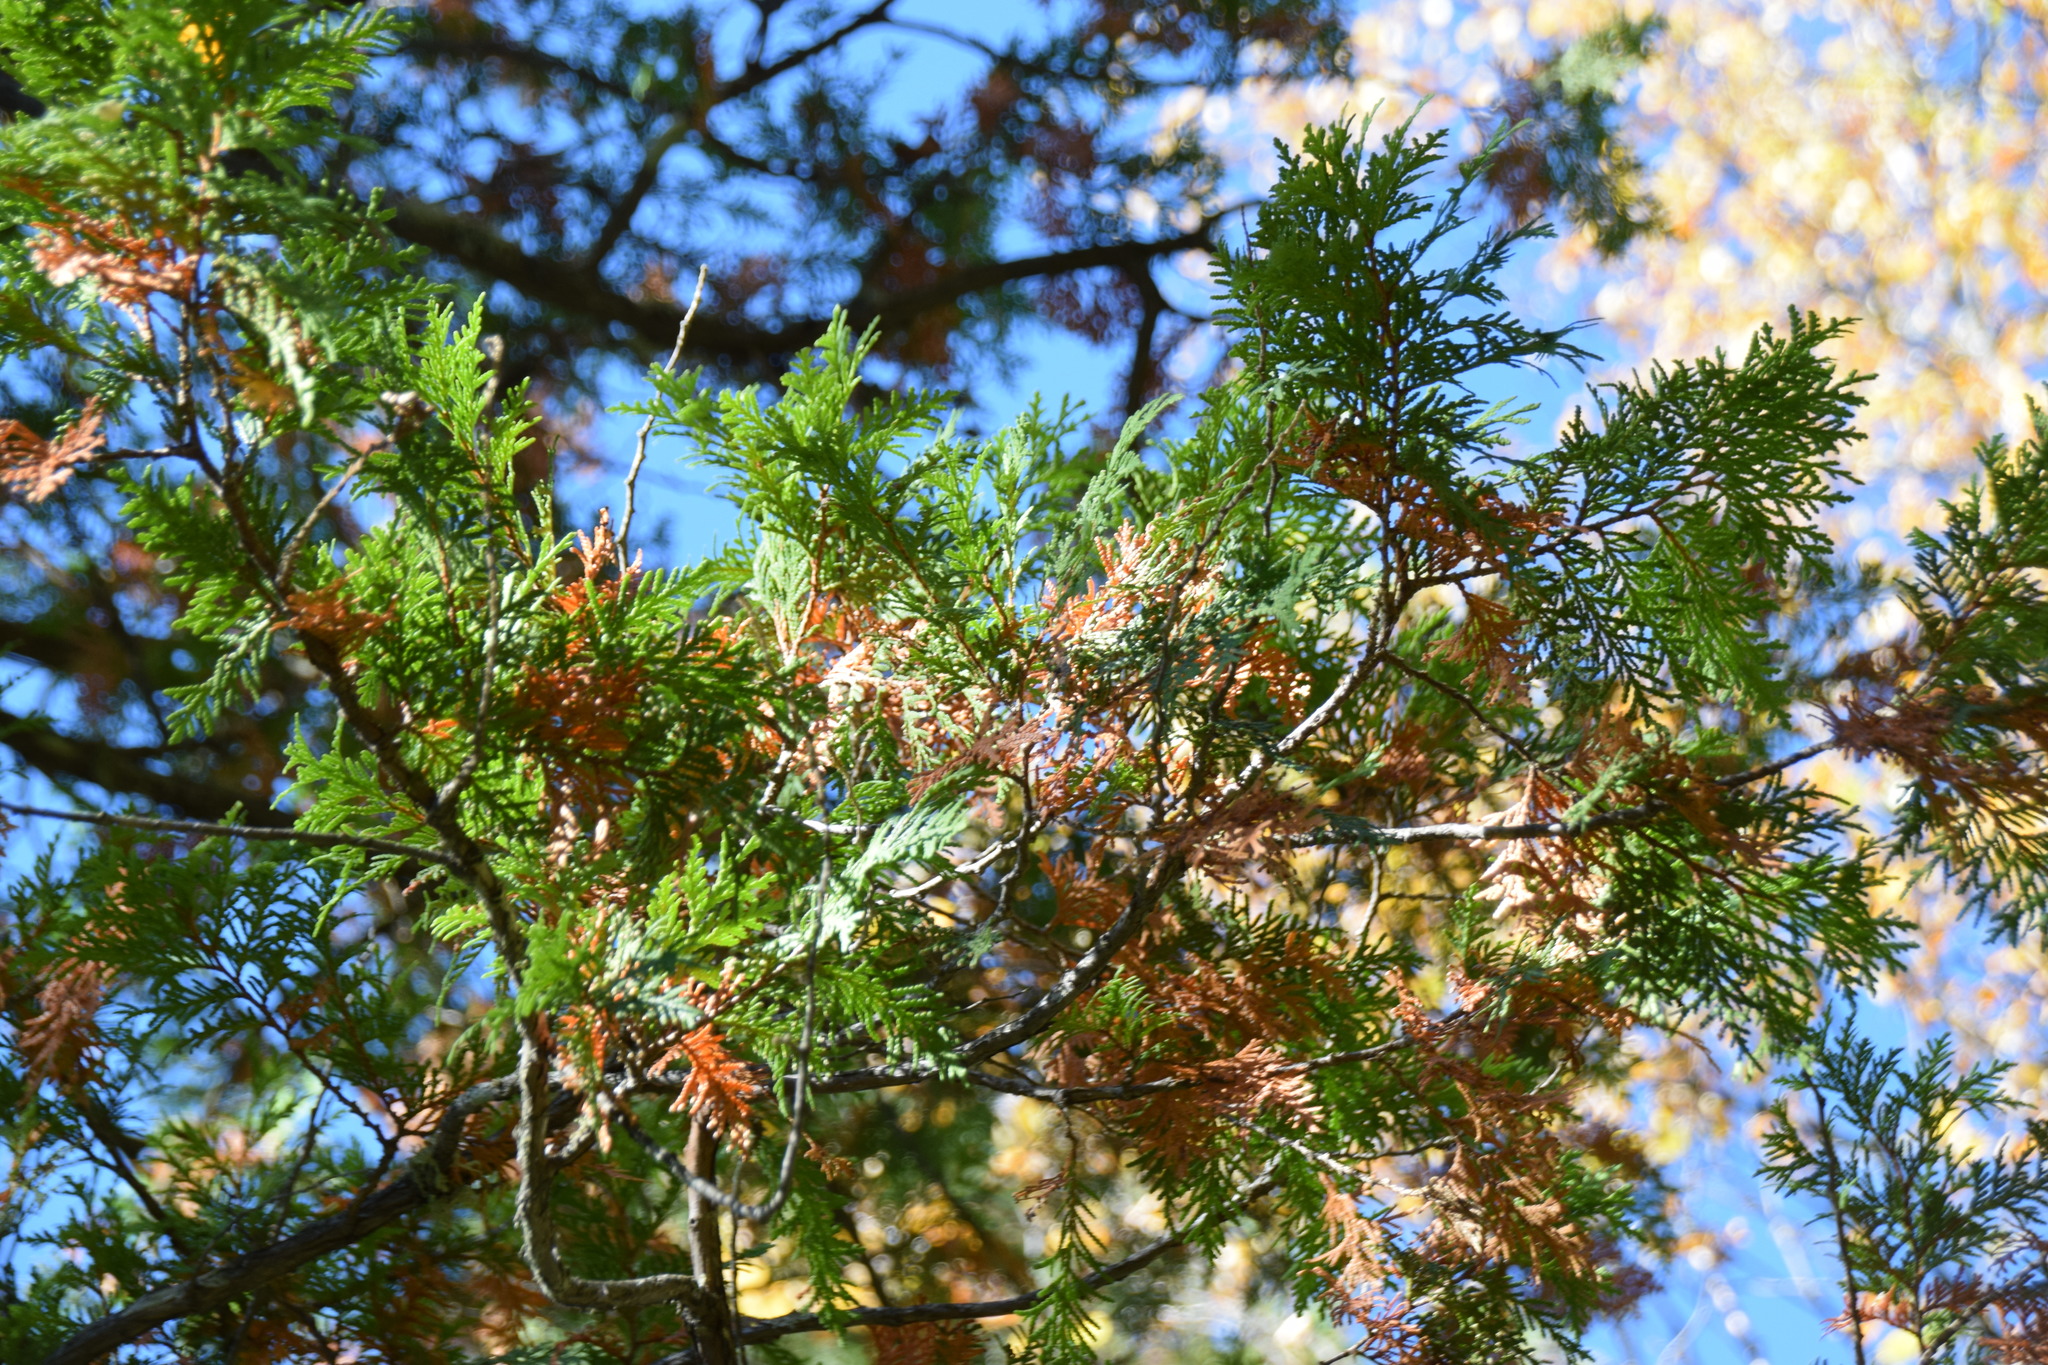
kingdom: Plantae
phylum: Tracheophyta
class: Pinopsida
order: Pinales
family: Cupressaceae
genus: Thuja
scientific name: Thuja occidentalis
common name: Northern white-cedar
